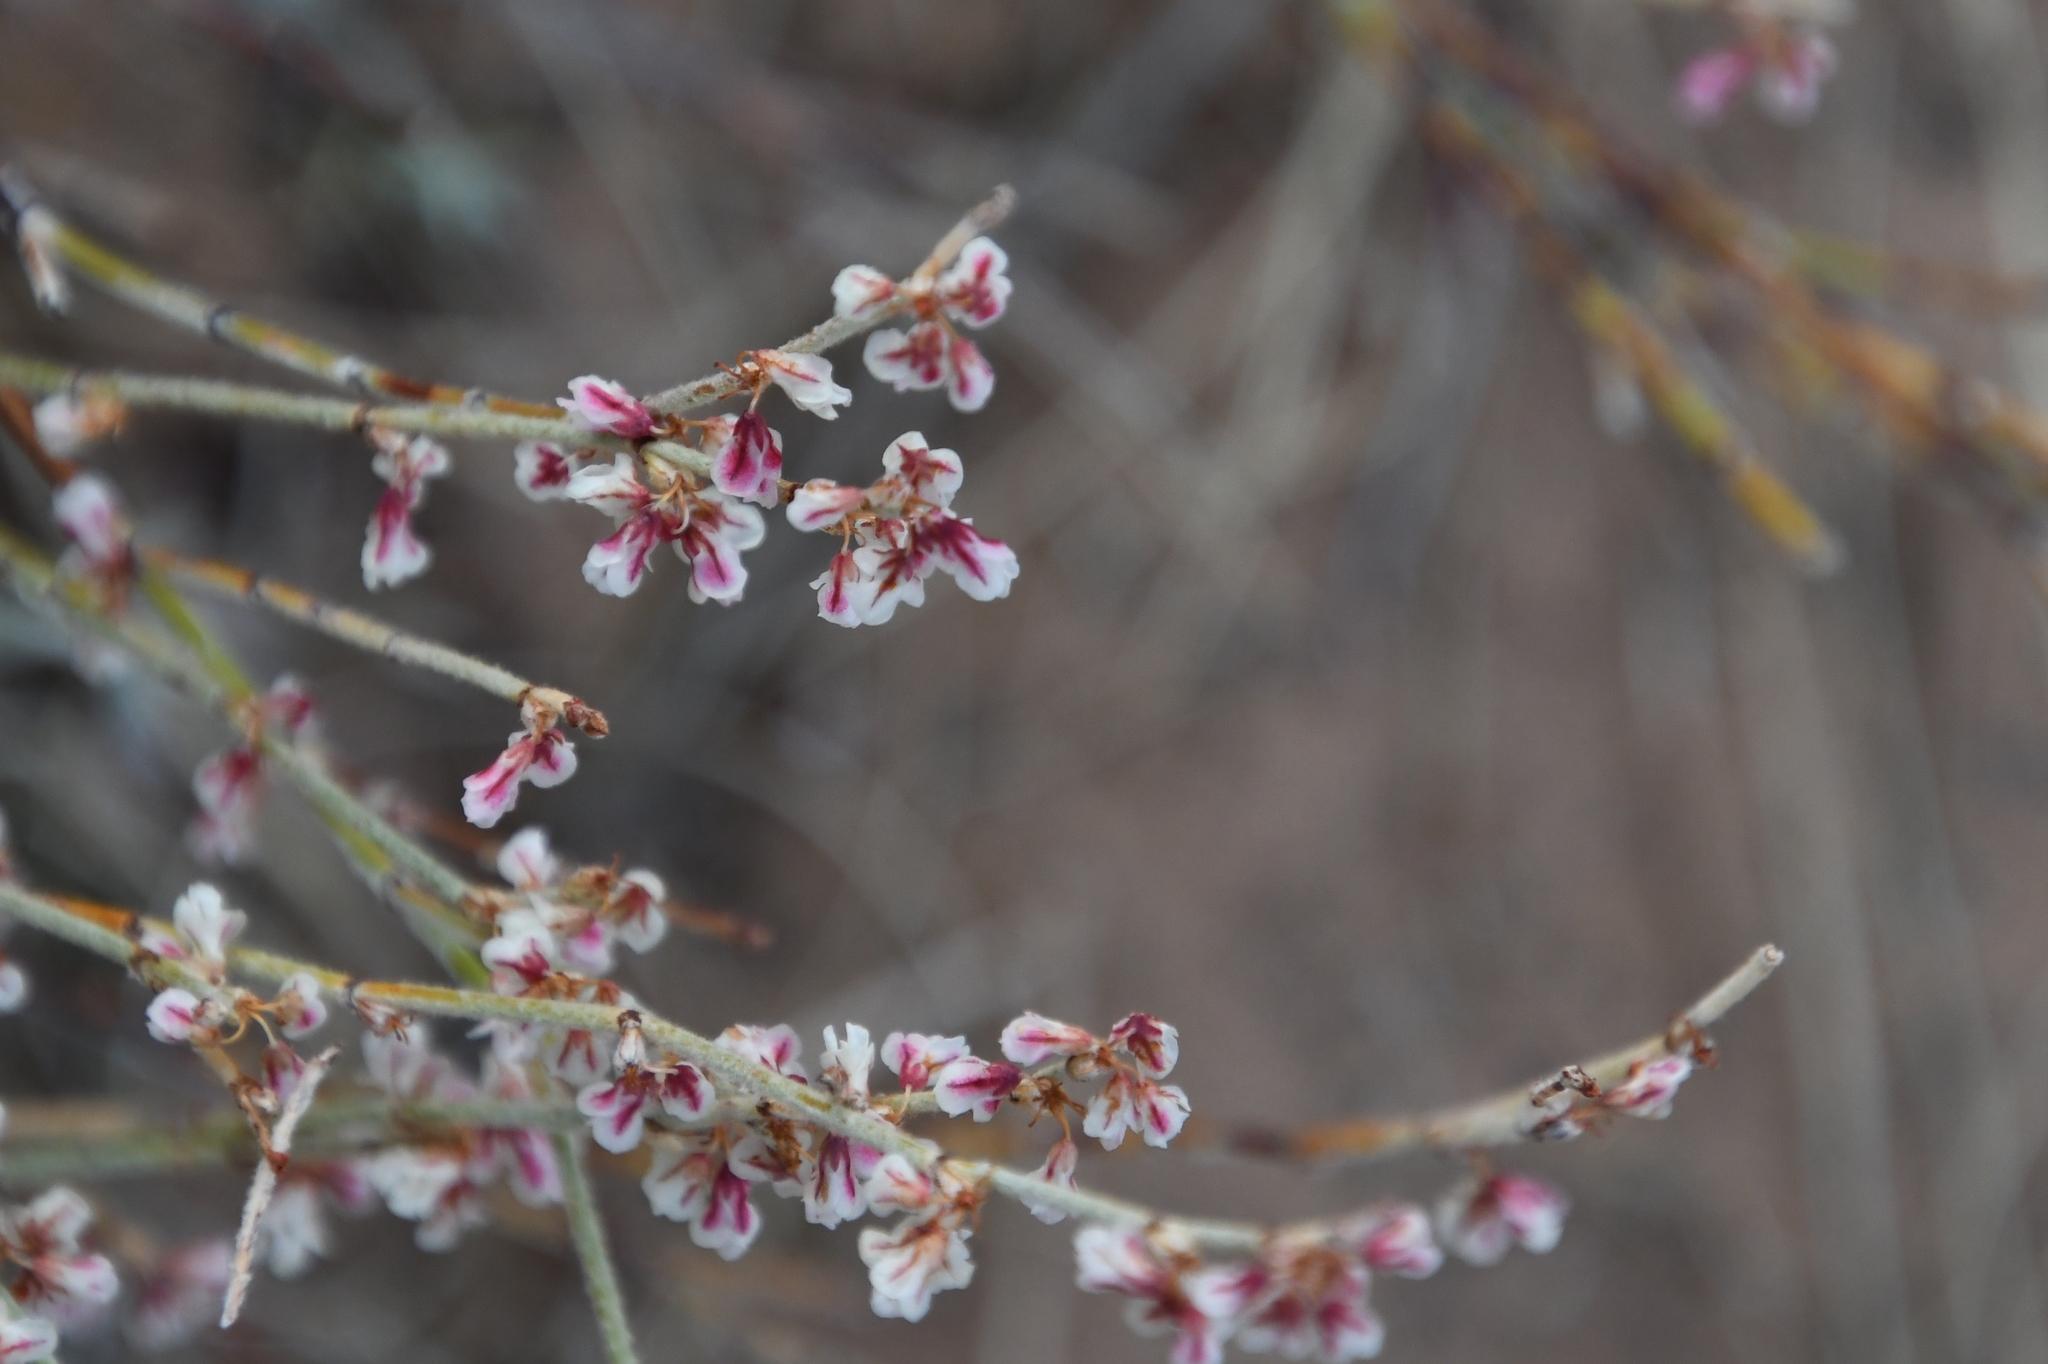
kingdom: Plantae
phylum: Tracheophyta
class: Magnoliopsida
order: Caryophyllales
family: Polygonaceae
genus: Eriogonum
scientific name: Eriogonum wrightii
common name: Bastard-sage
